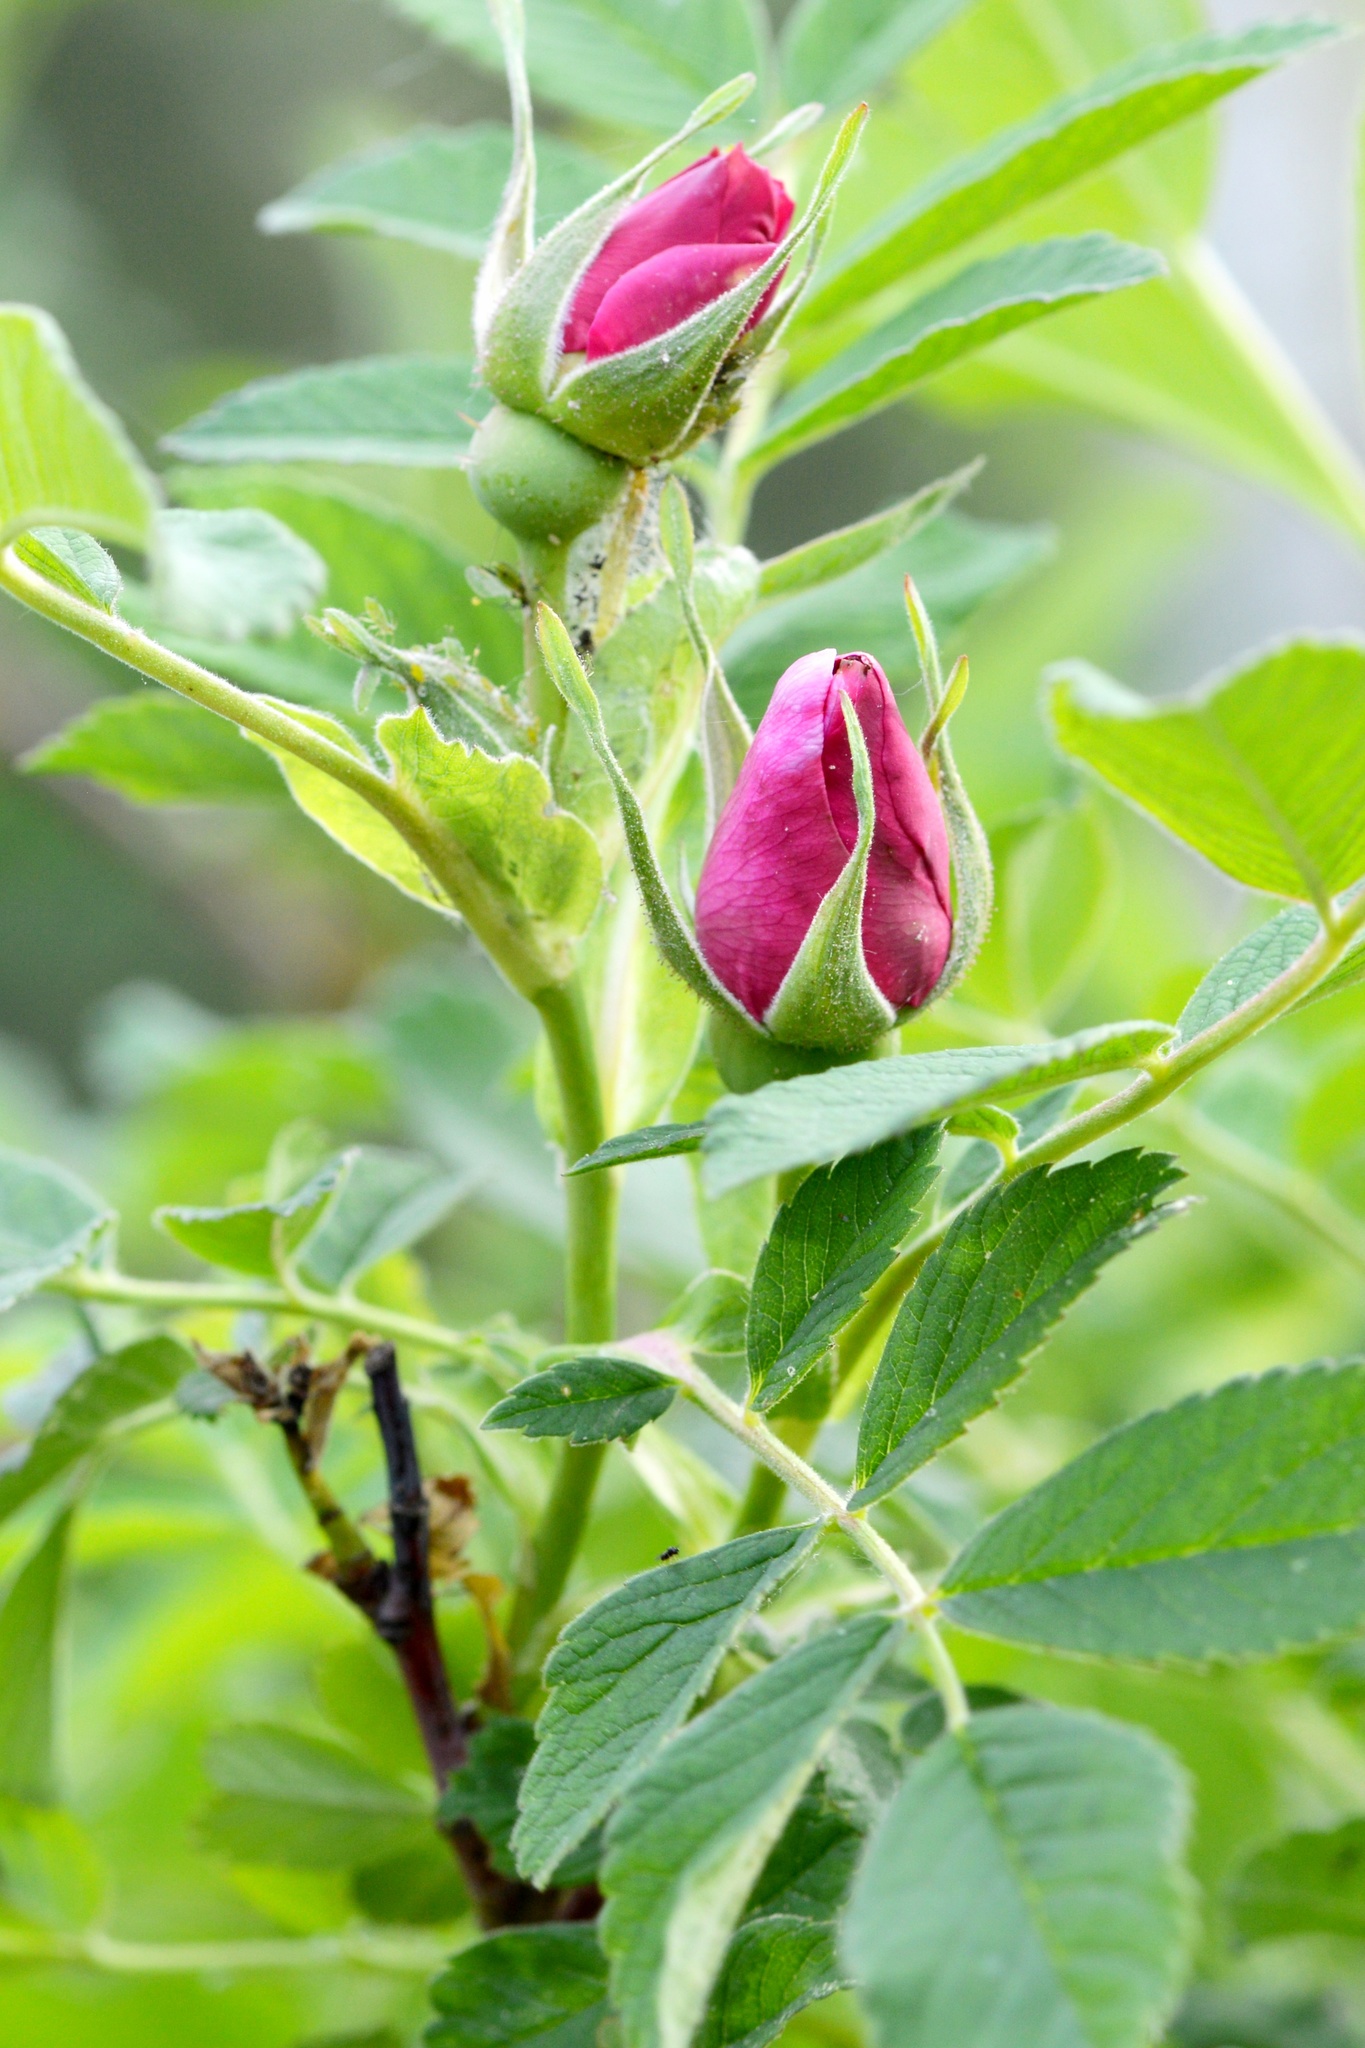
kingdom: Plantae
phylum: Tracheophyta
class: Magnoliopsida
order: Rosales
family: Rosaceae
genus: Rosa
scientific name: Rosa rugosa
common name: Japanese rose
